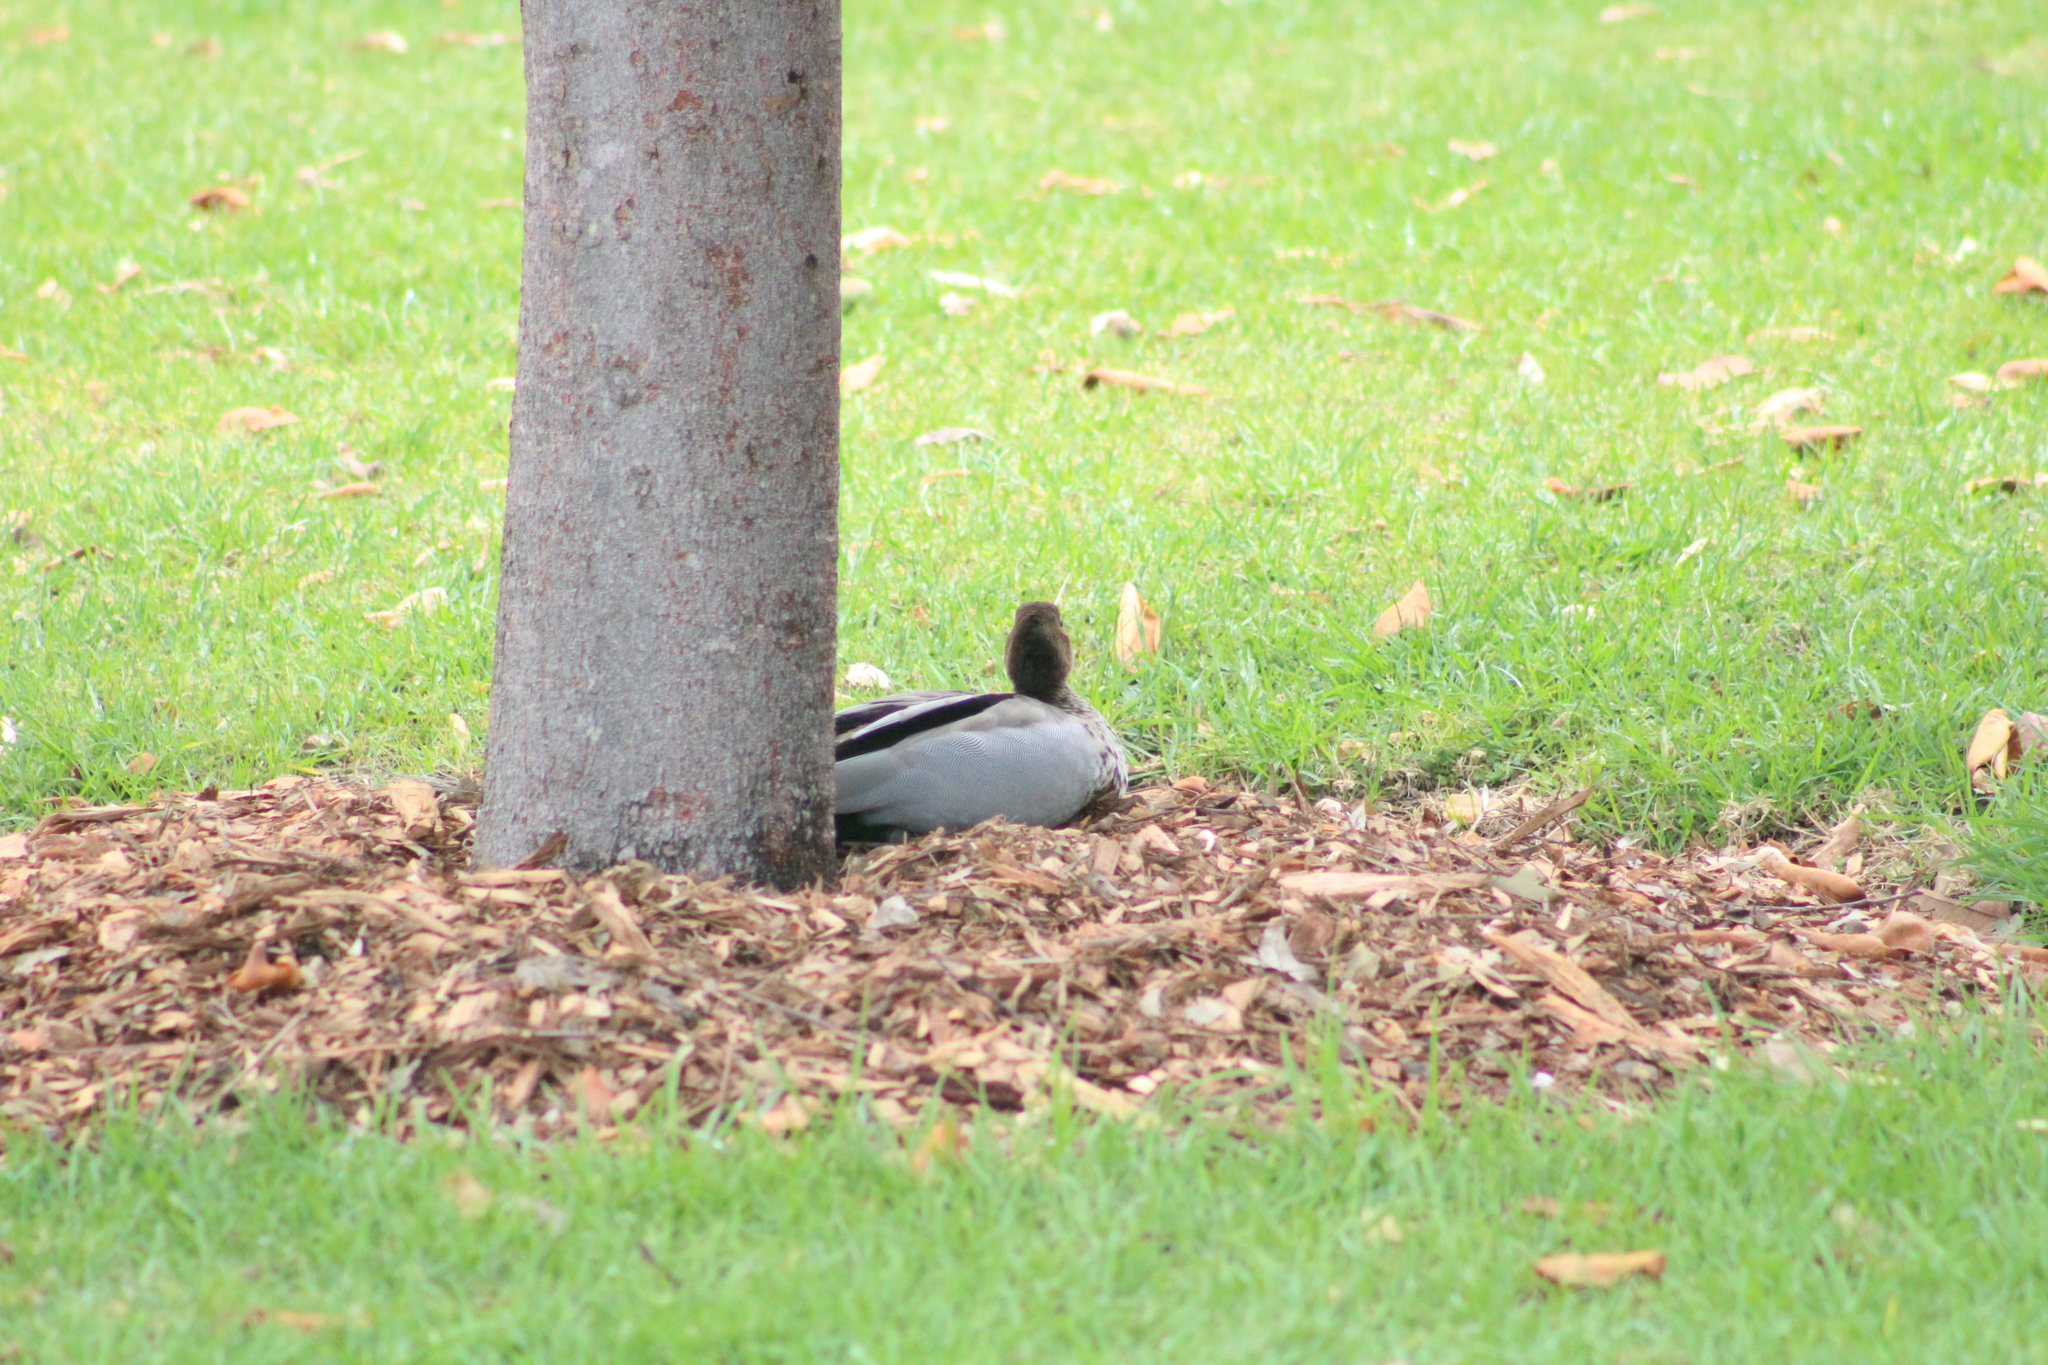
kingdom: Animalia
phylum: Chordata
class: Aves
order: Anseriformes
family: Anatidae
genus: Chenonetta
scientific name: Chenonetta jubata
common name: Maned duck
